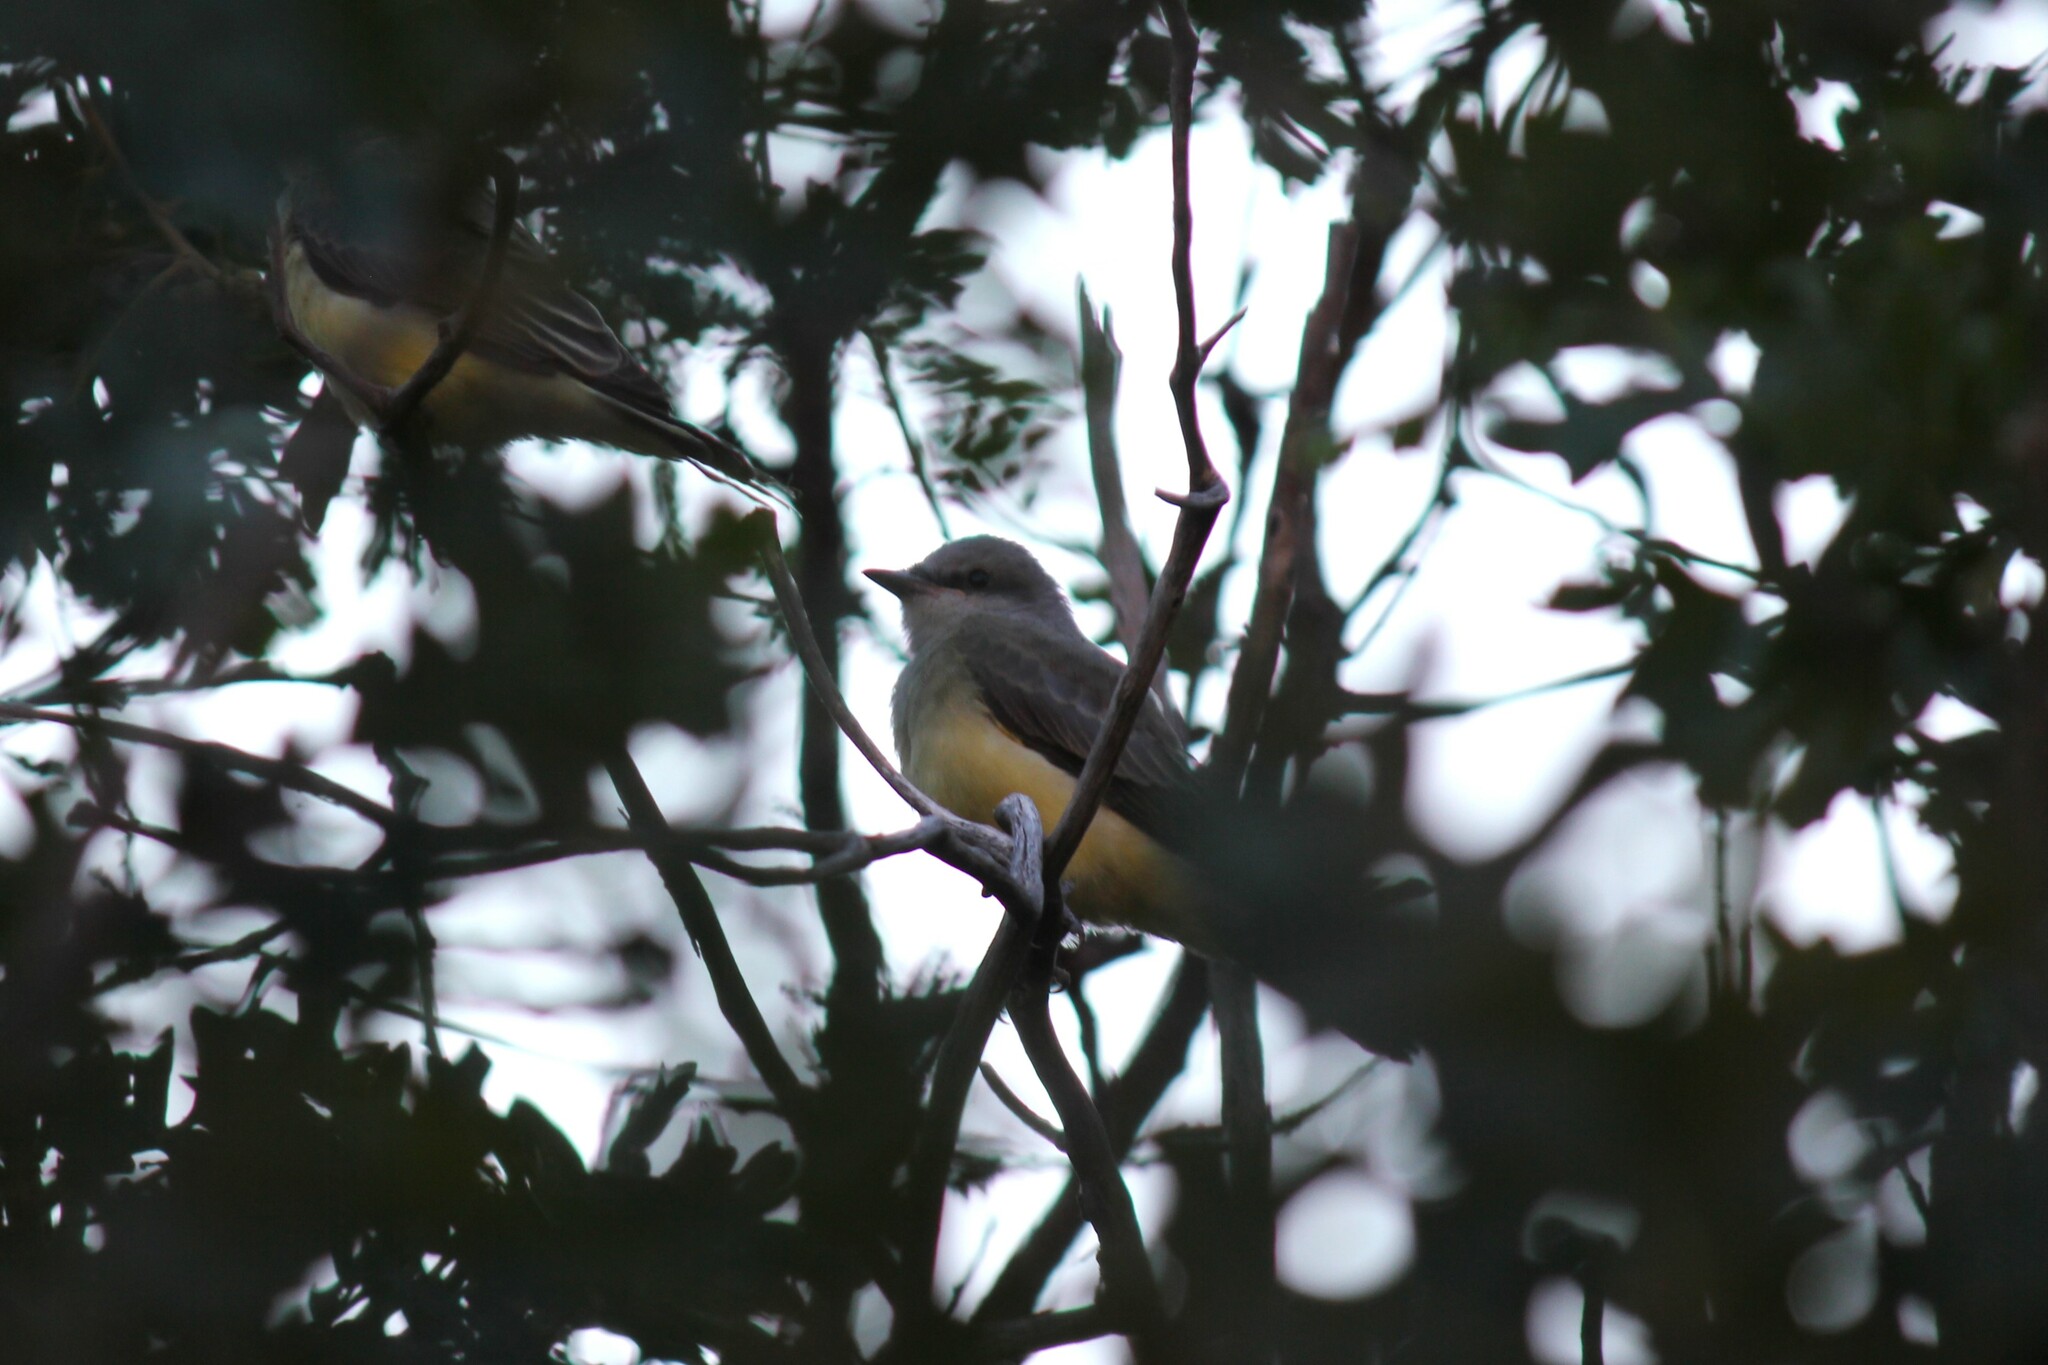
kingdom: Animalia
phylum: Chordata
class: Aves
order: Passeriformes
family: Tyrannidae
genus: Tyrannus
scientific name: Tyrannus verticalis
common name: Western kingbird
